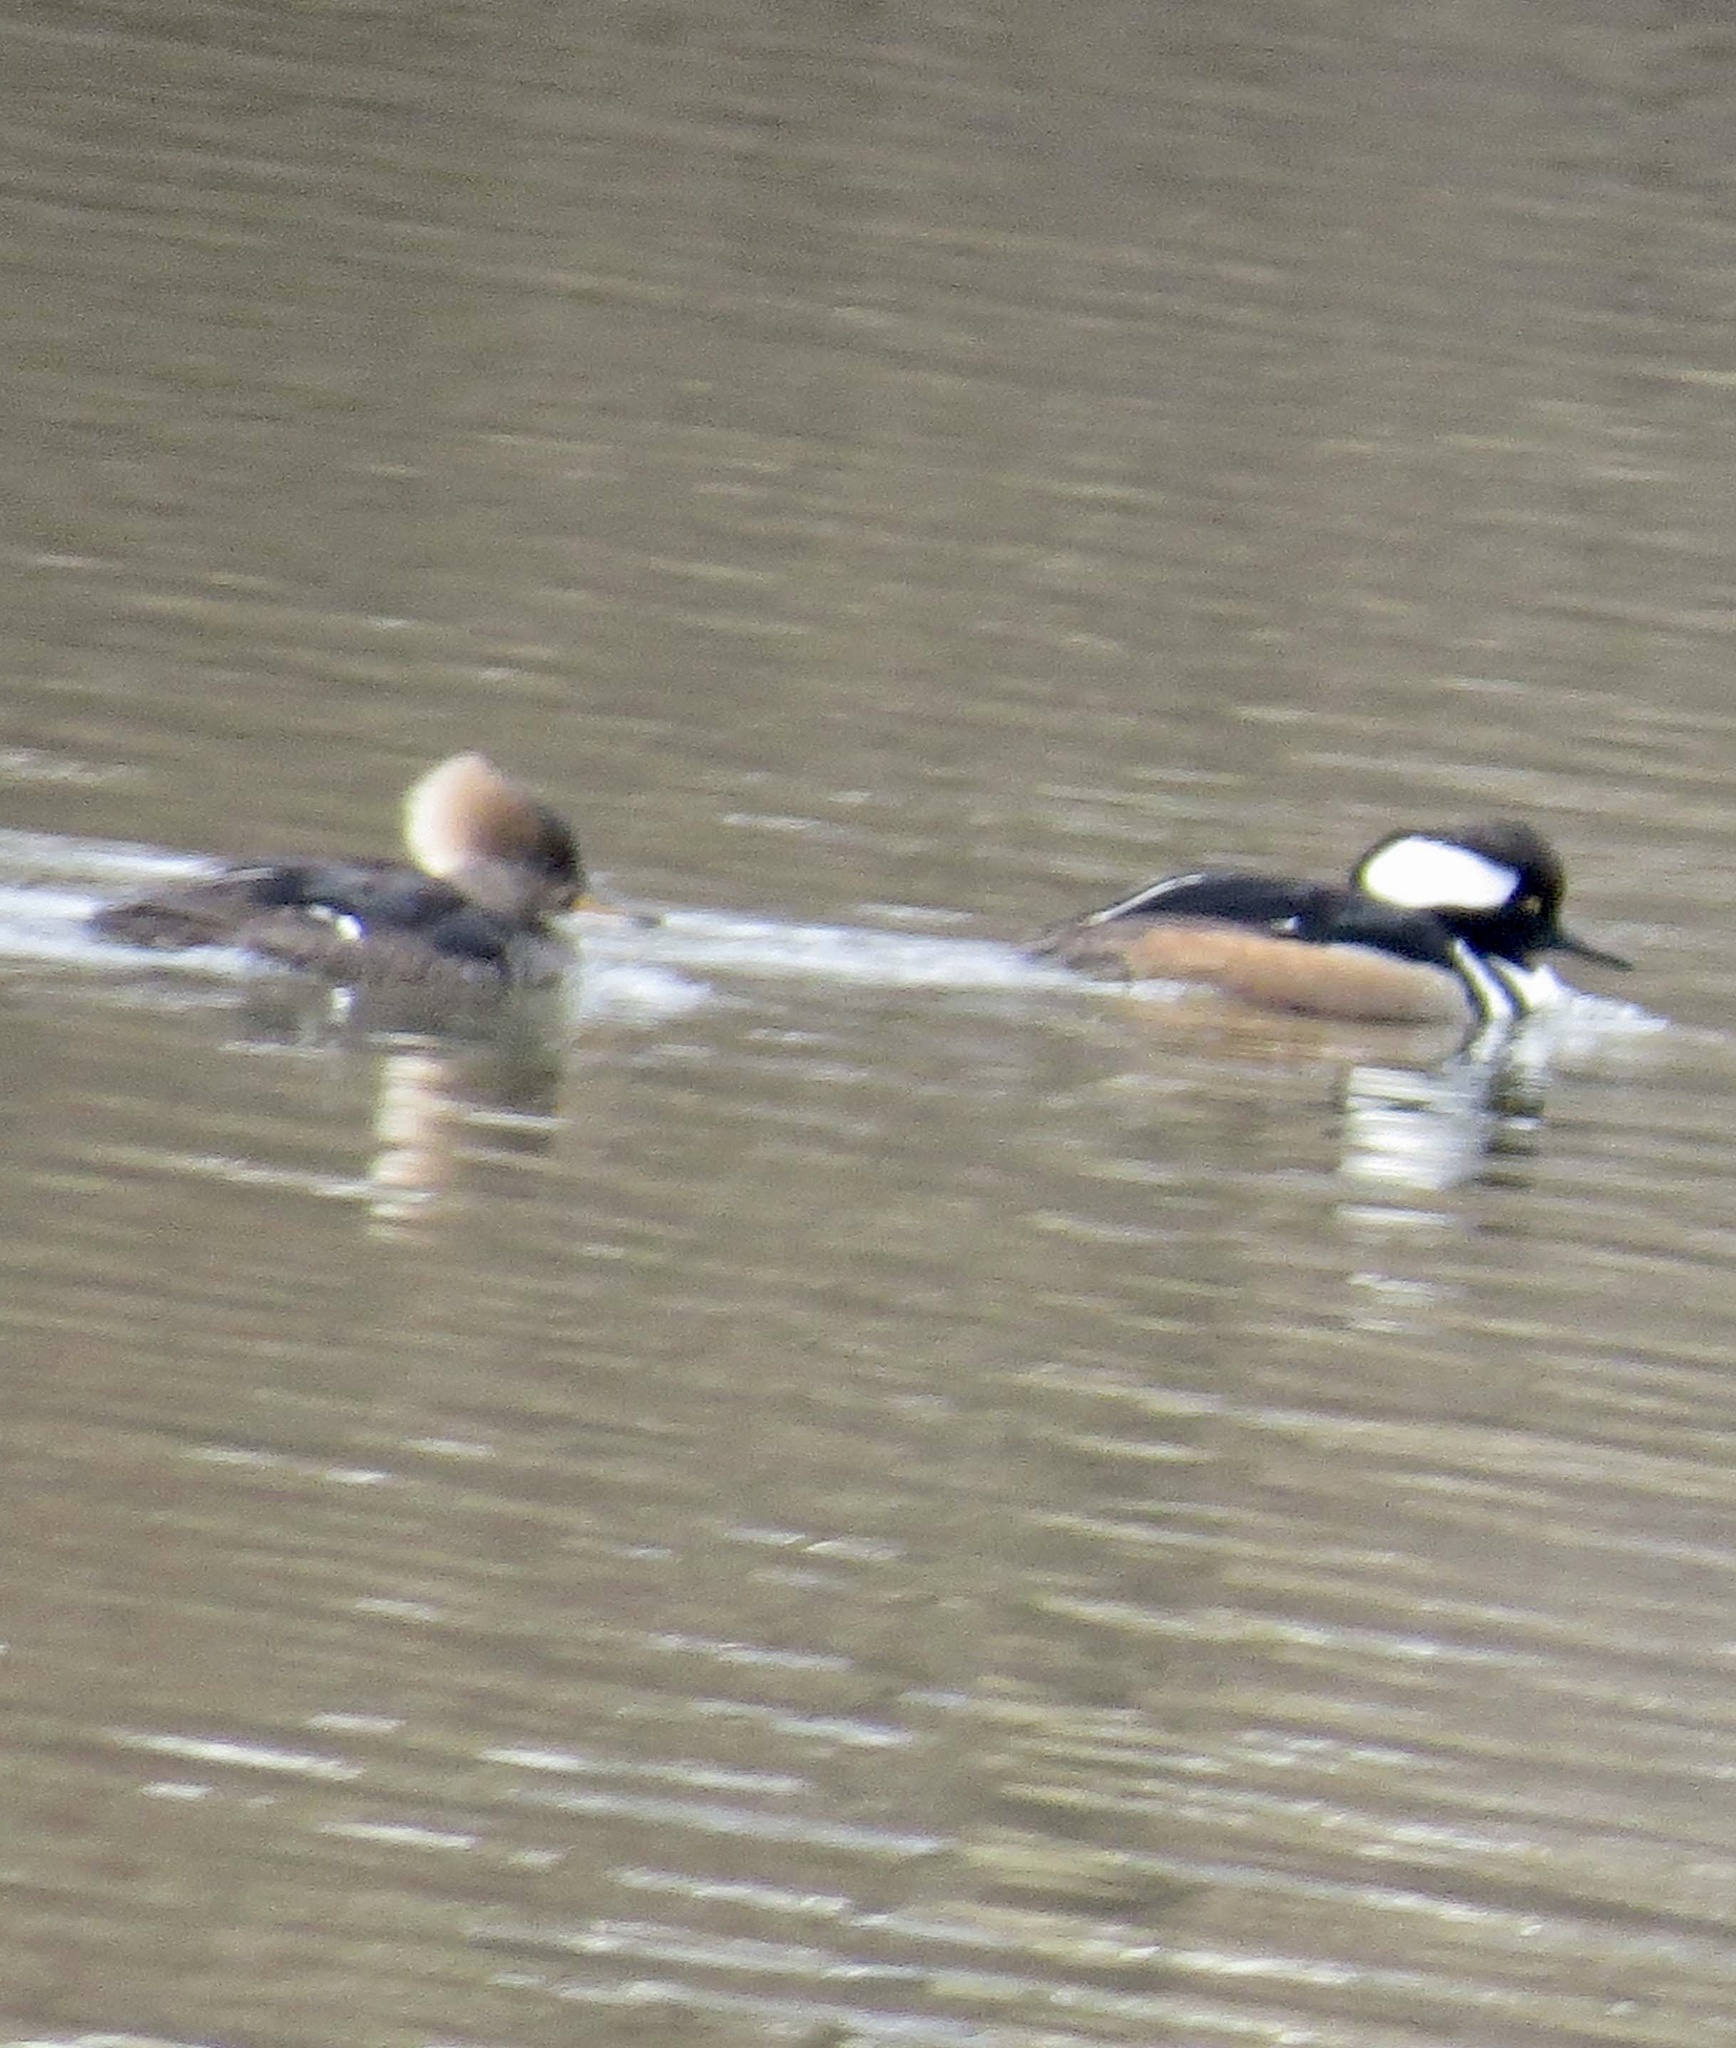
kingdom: Animalia
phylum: Chordata
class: Aves
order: Anseriformes
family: Anatidae
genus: Lophodytes
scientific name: Lophodytes cucullatus
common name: Hooded merganser
